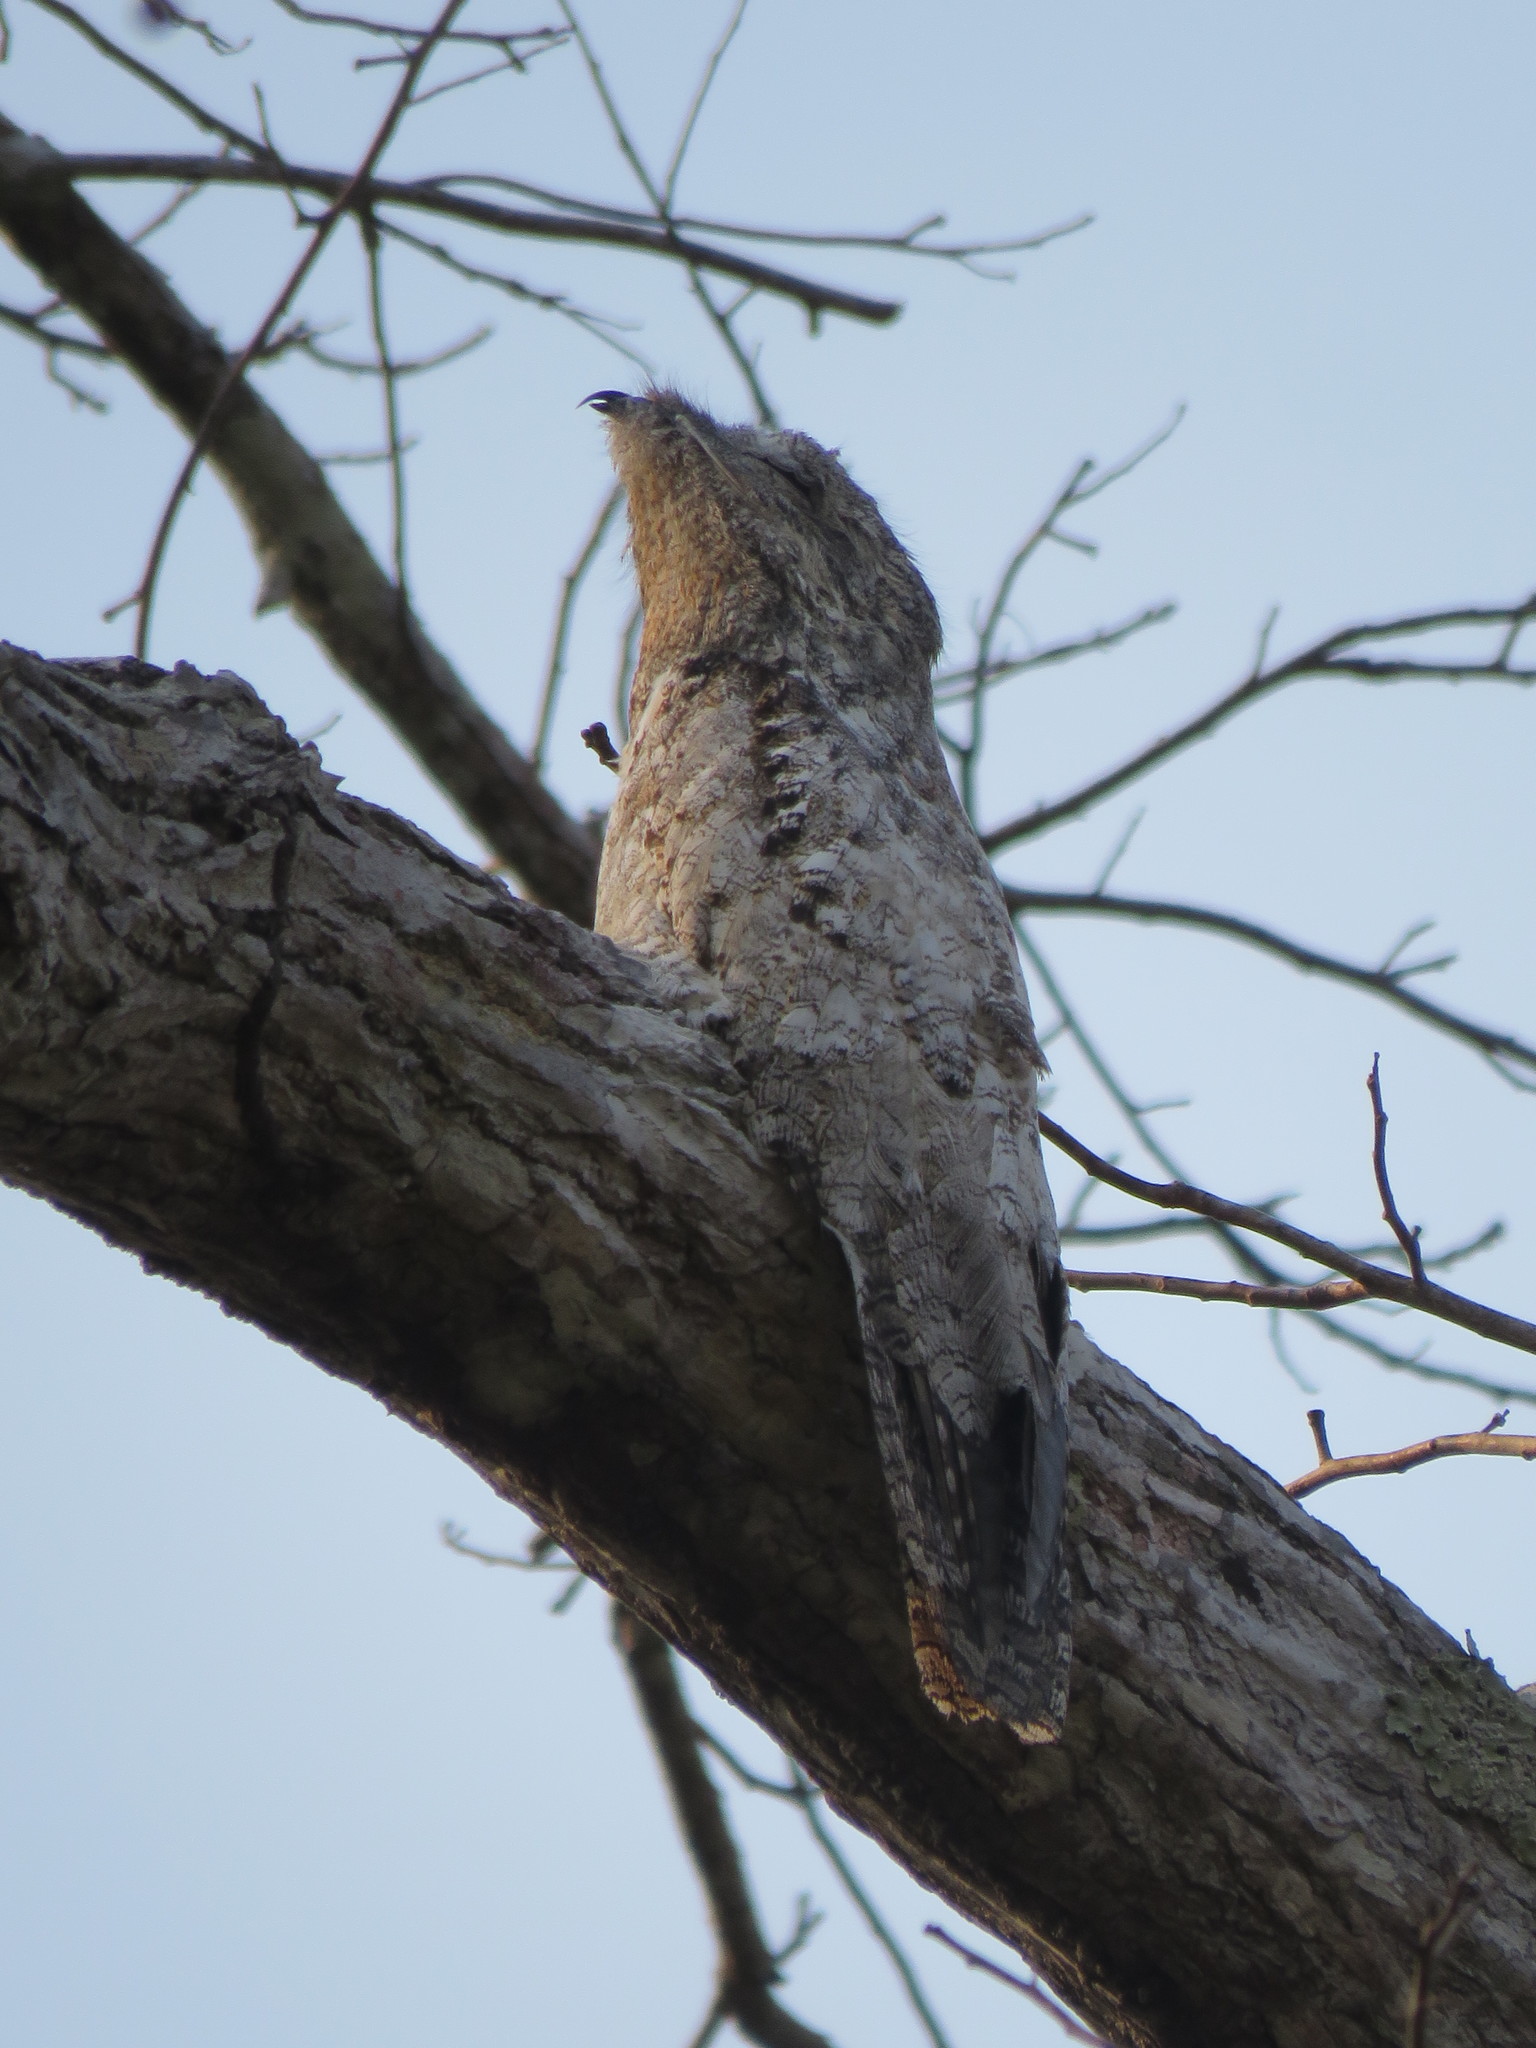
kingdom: Animalia
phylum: Chordata
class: Aves
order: Nyctibiiformes
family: Nyctibiidae
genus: Nyctibius
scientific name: Nyctibius grandis
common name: Great potoo
